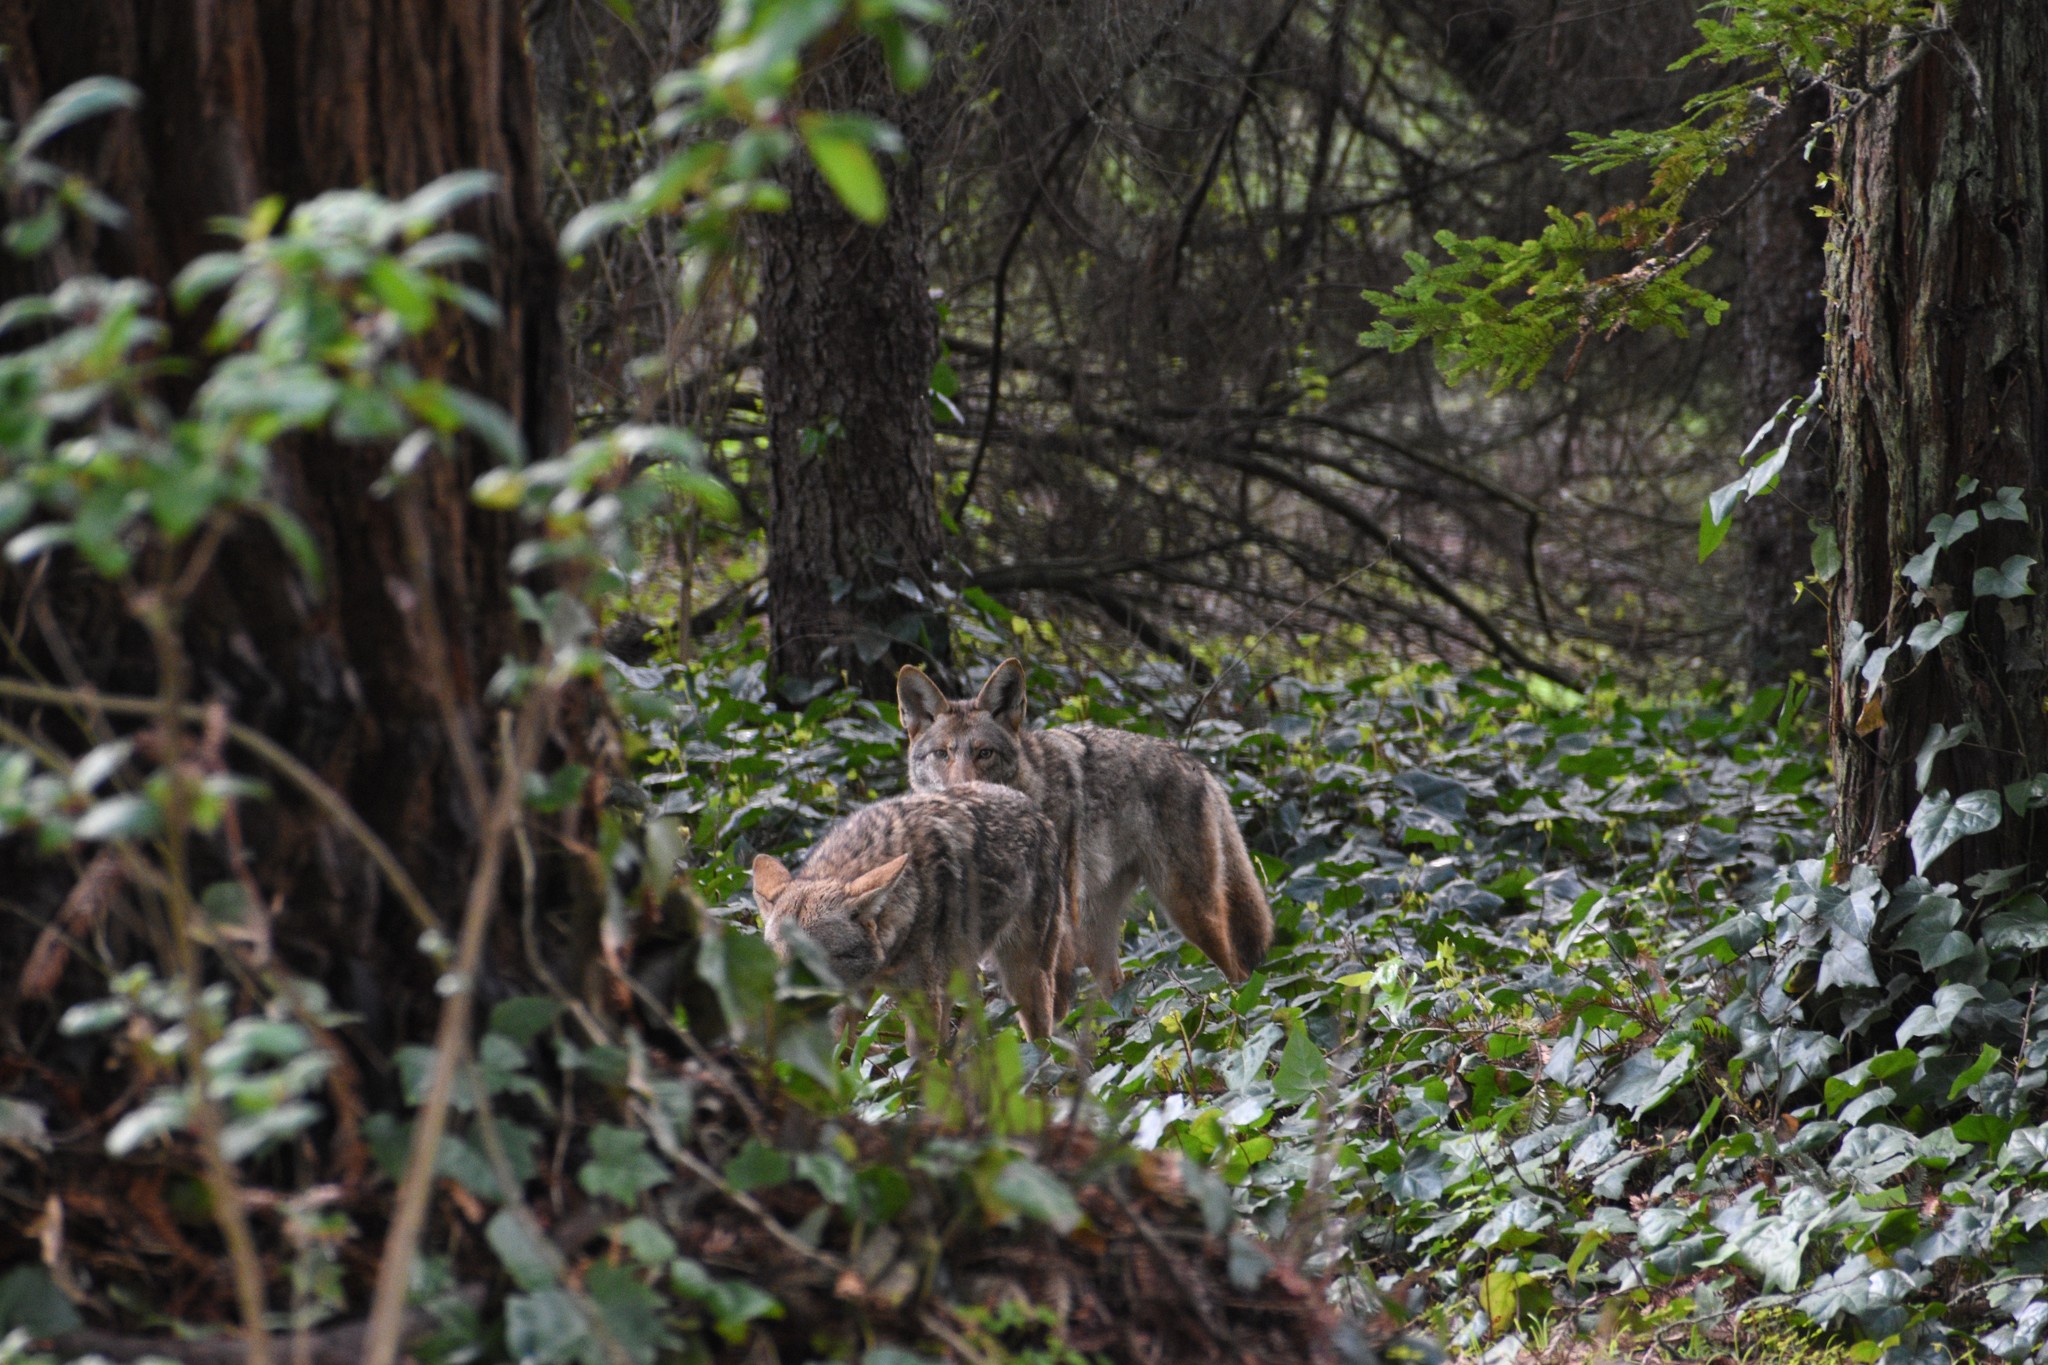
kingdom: Animalia
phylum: Chordata
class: Mammalia
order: Carnivora
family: Canidae
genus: Canis
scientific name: Canis latrans
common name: Coyote
